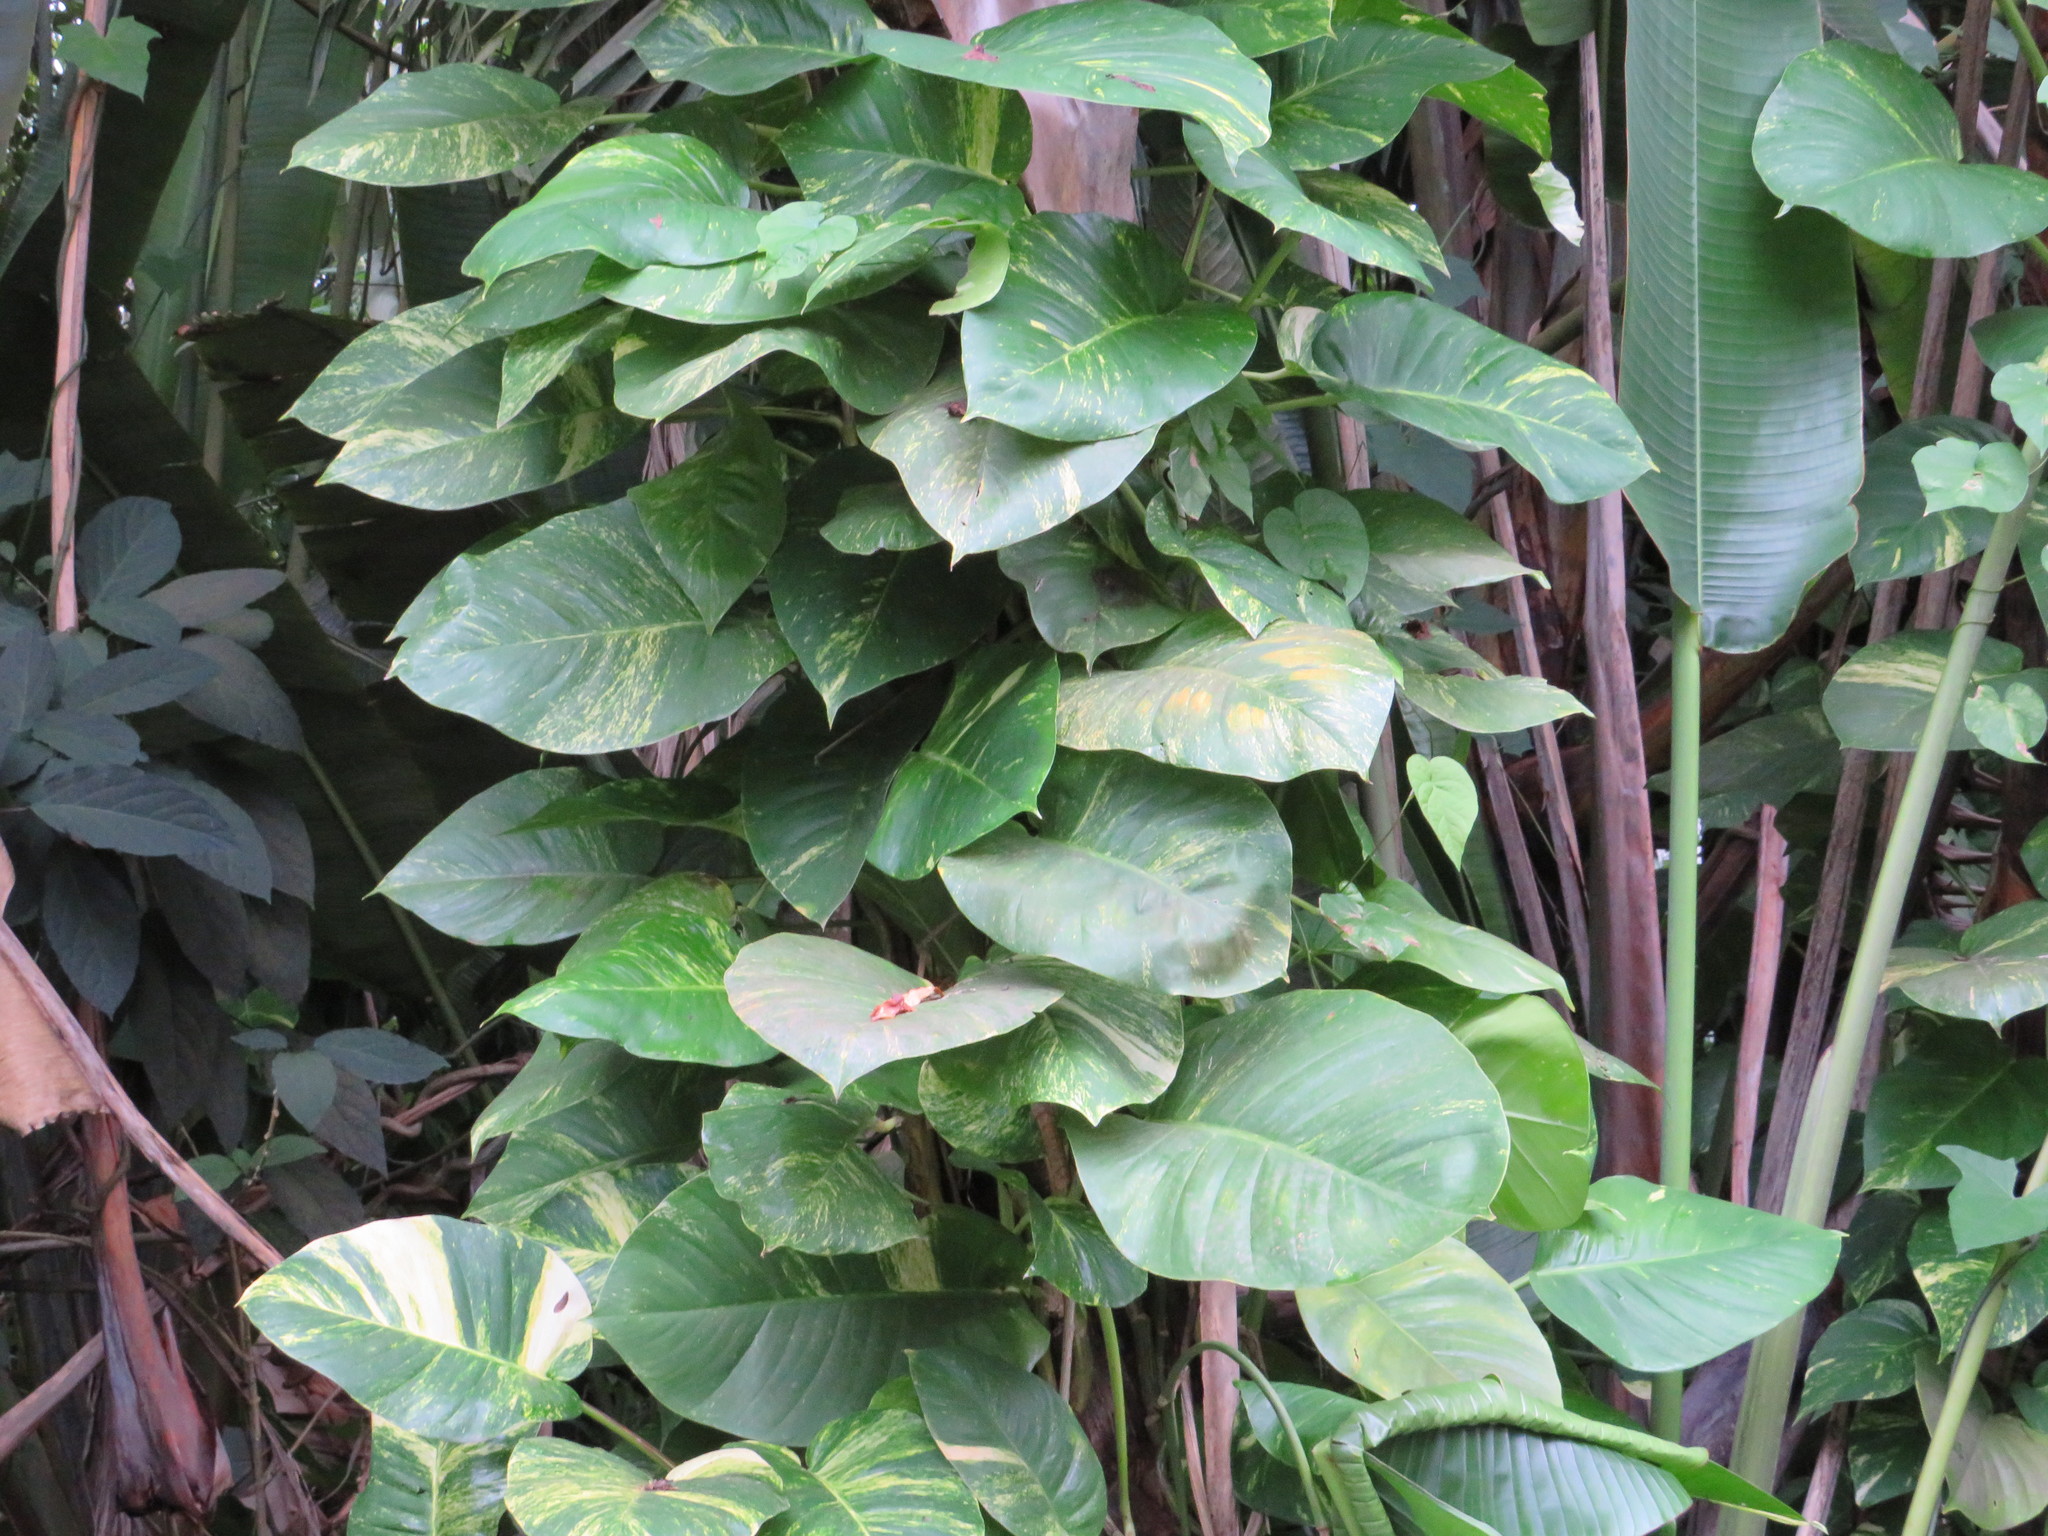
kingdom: Plantae
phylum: Tracheophyta
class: Liliopsida
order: Alismatales
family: Araceae
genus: Epipremnum
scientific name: Epipremnum aureum
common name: Golden hunter's-robe
